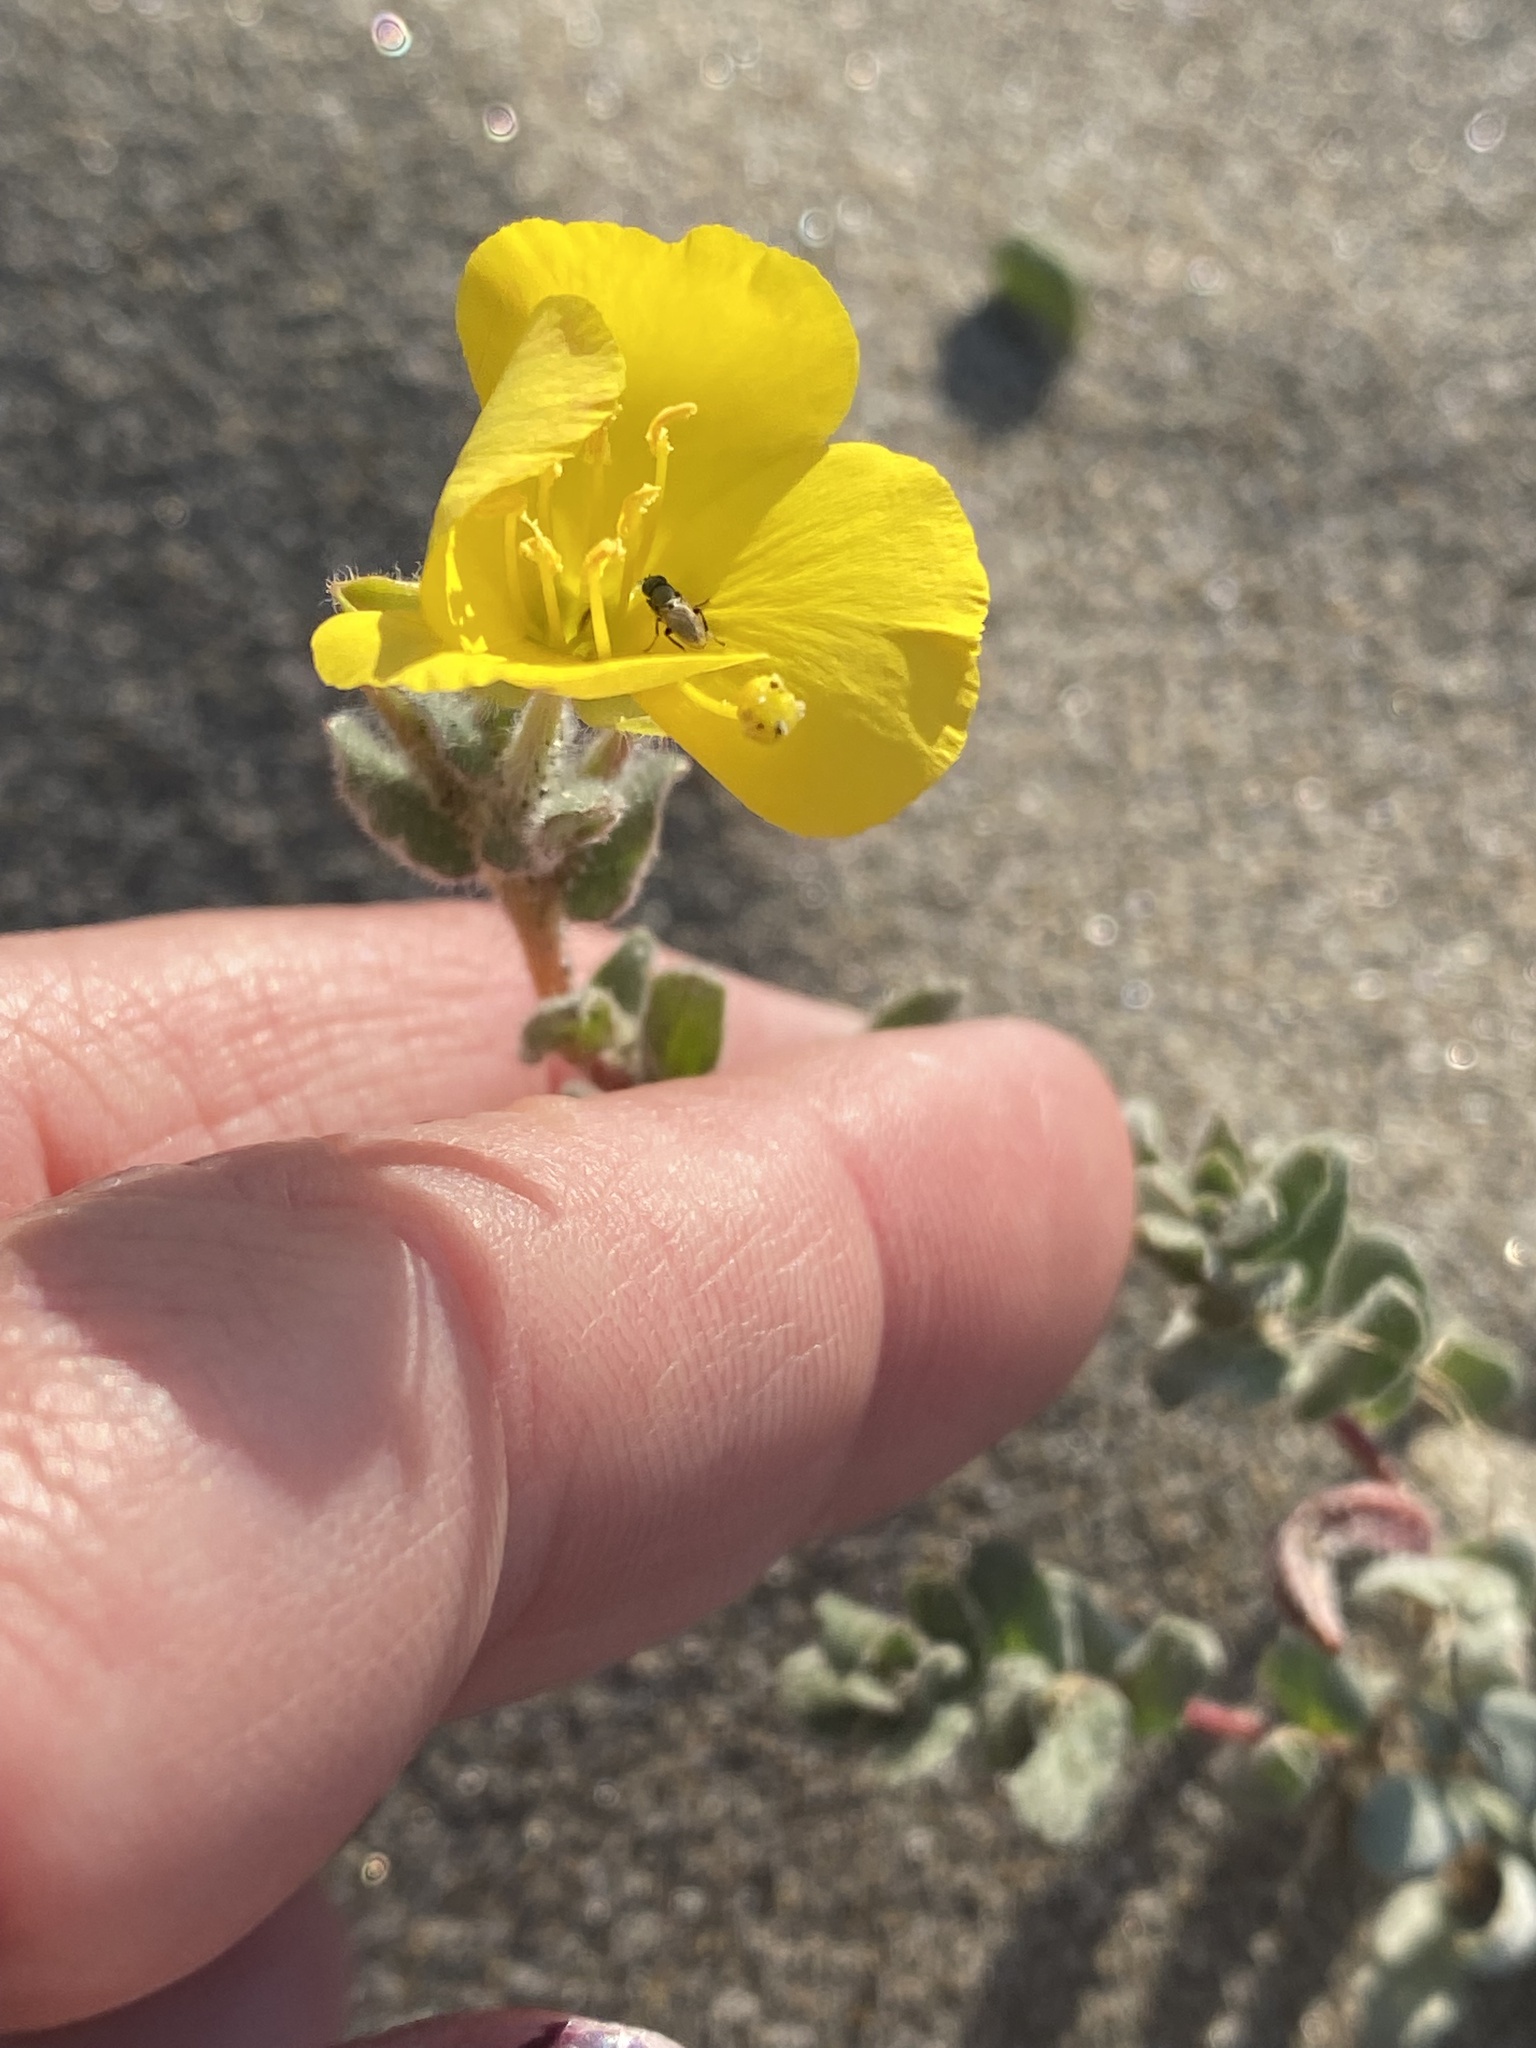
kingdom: Plantae
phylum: Tracheophyta
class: Magnoliopsida
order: Myrtales
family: Onagraceae
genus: Camissoniopsis
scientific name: Camissoniopsis cheiranthifolia
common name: Beach suncup
